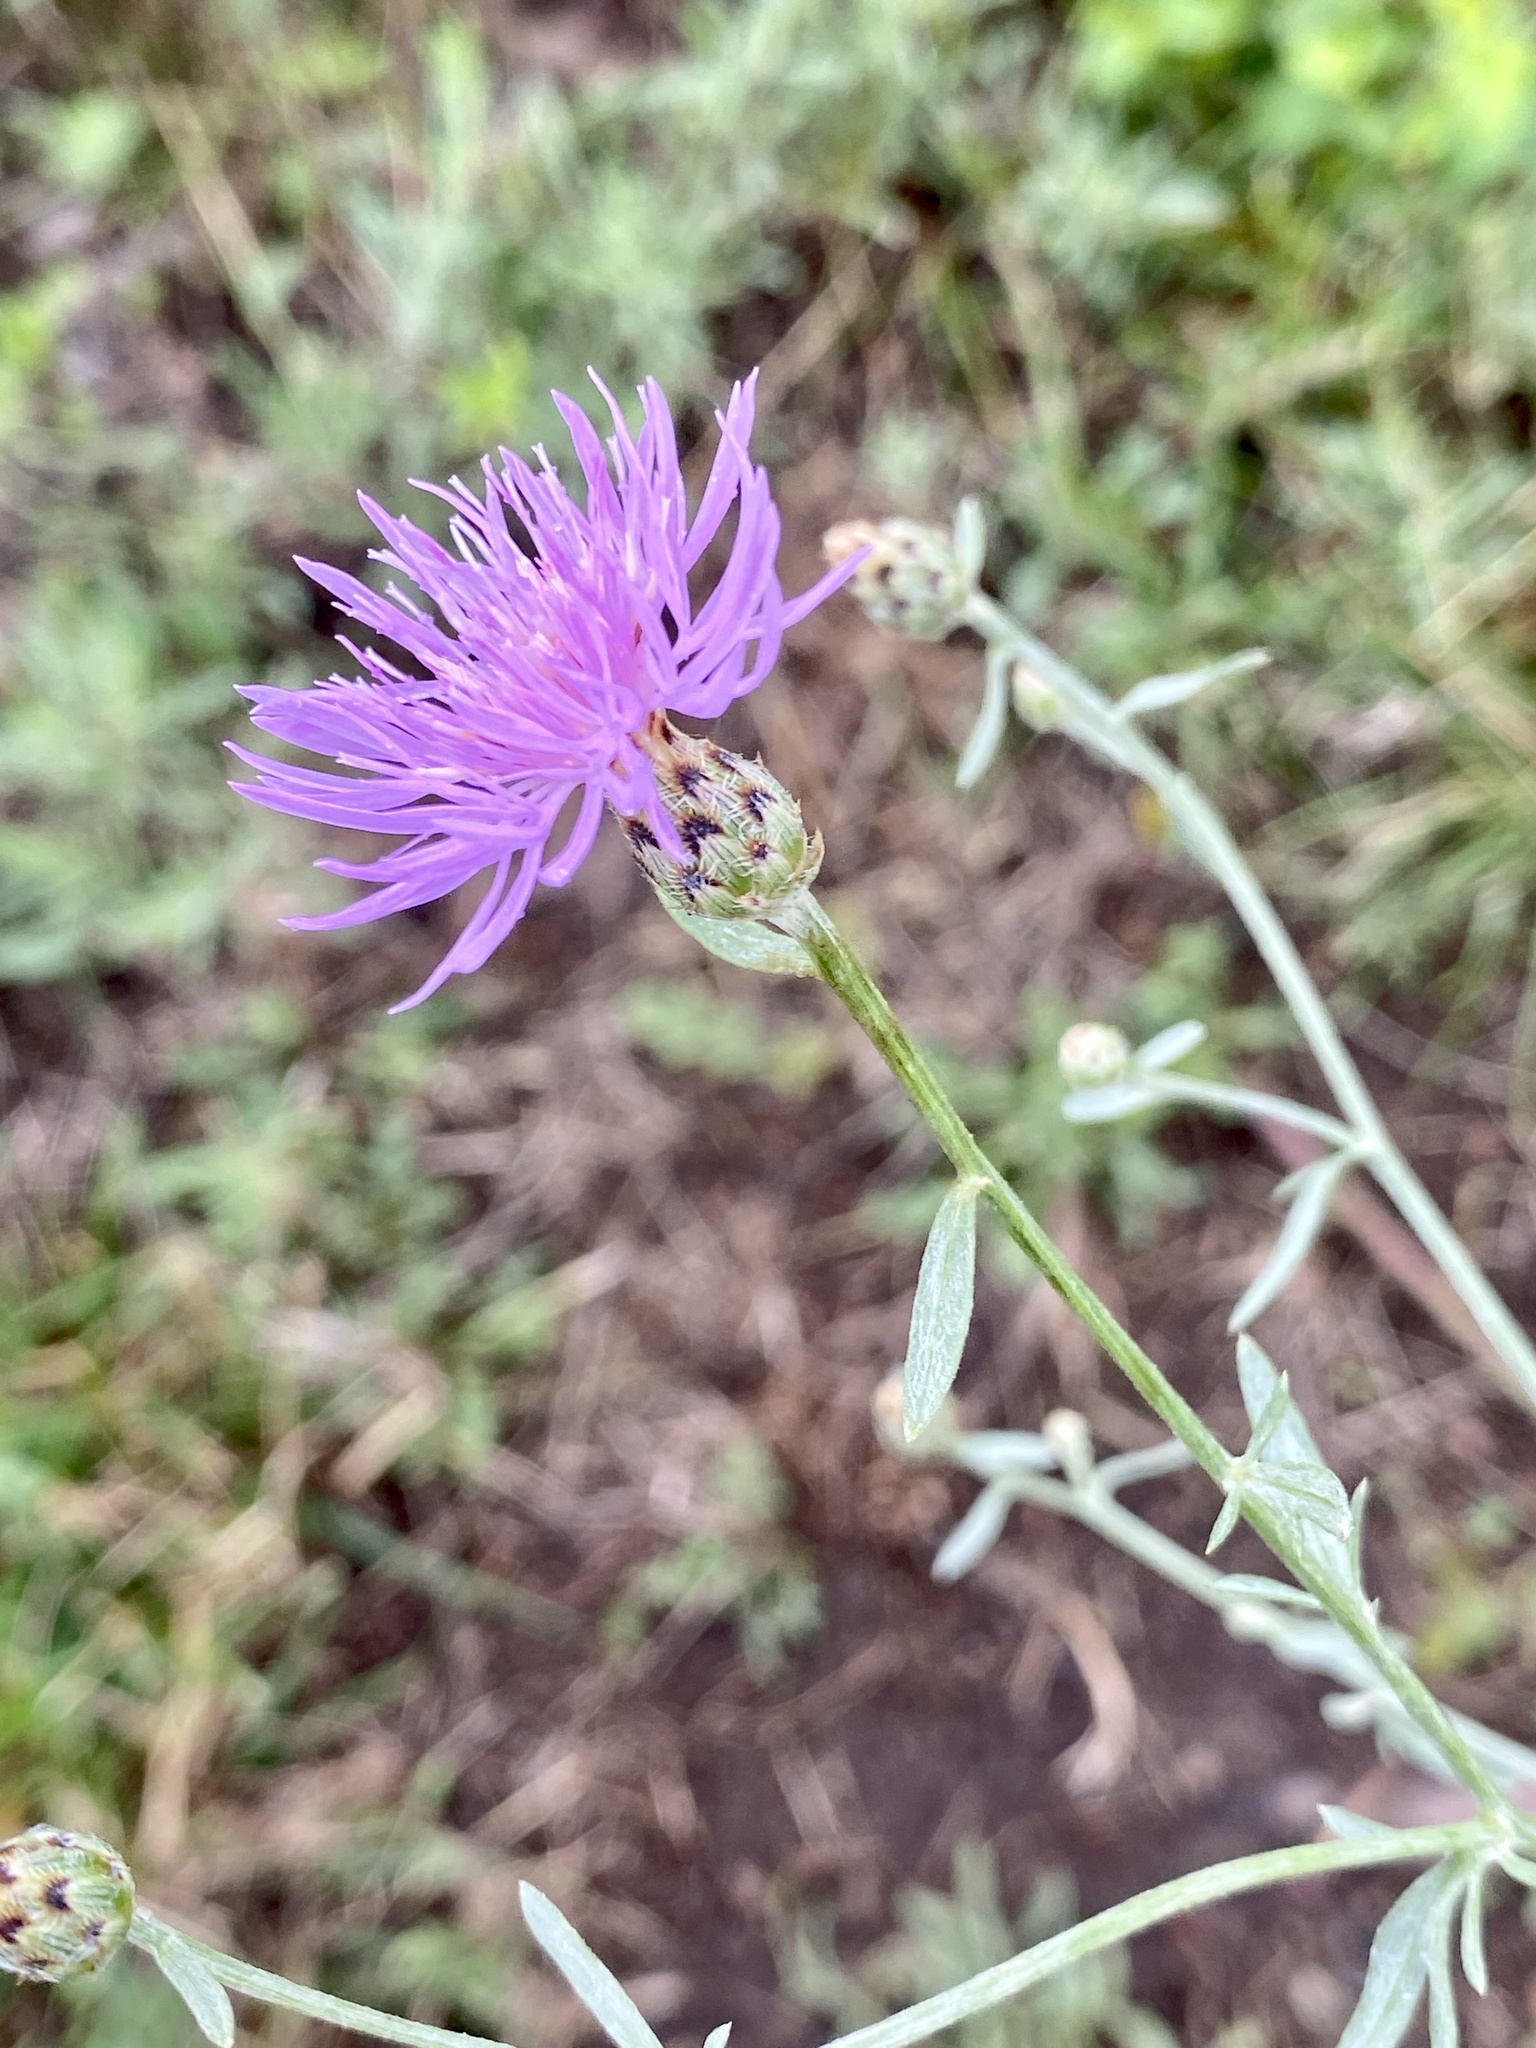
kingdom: Plantae
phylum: Tracheophyta
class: Magnoliopsida
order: Asterales
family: Asteraceae
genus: Centaurea
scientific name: Centaurea stoebe
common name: Spotted knapweed
